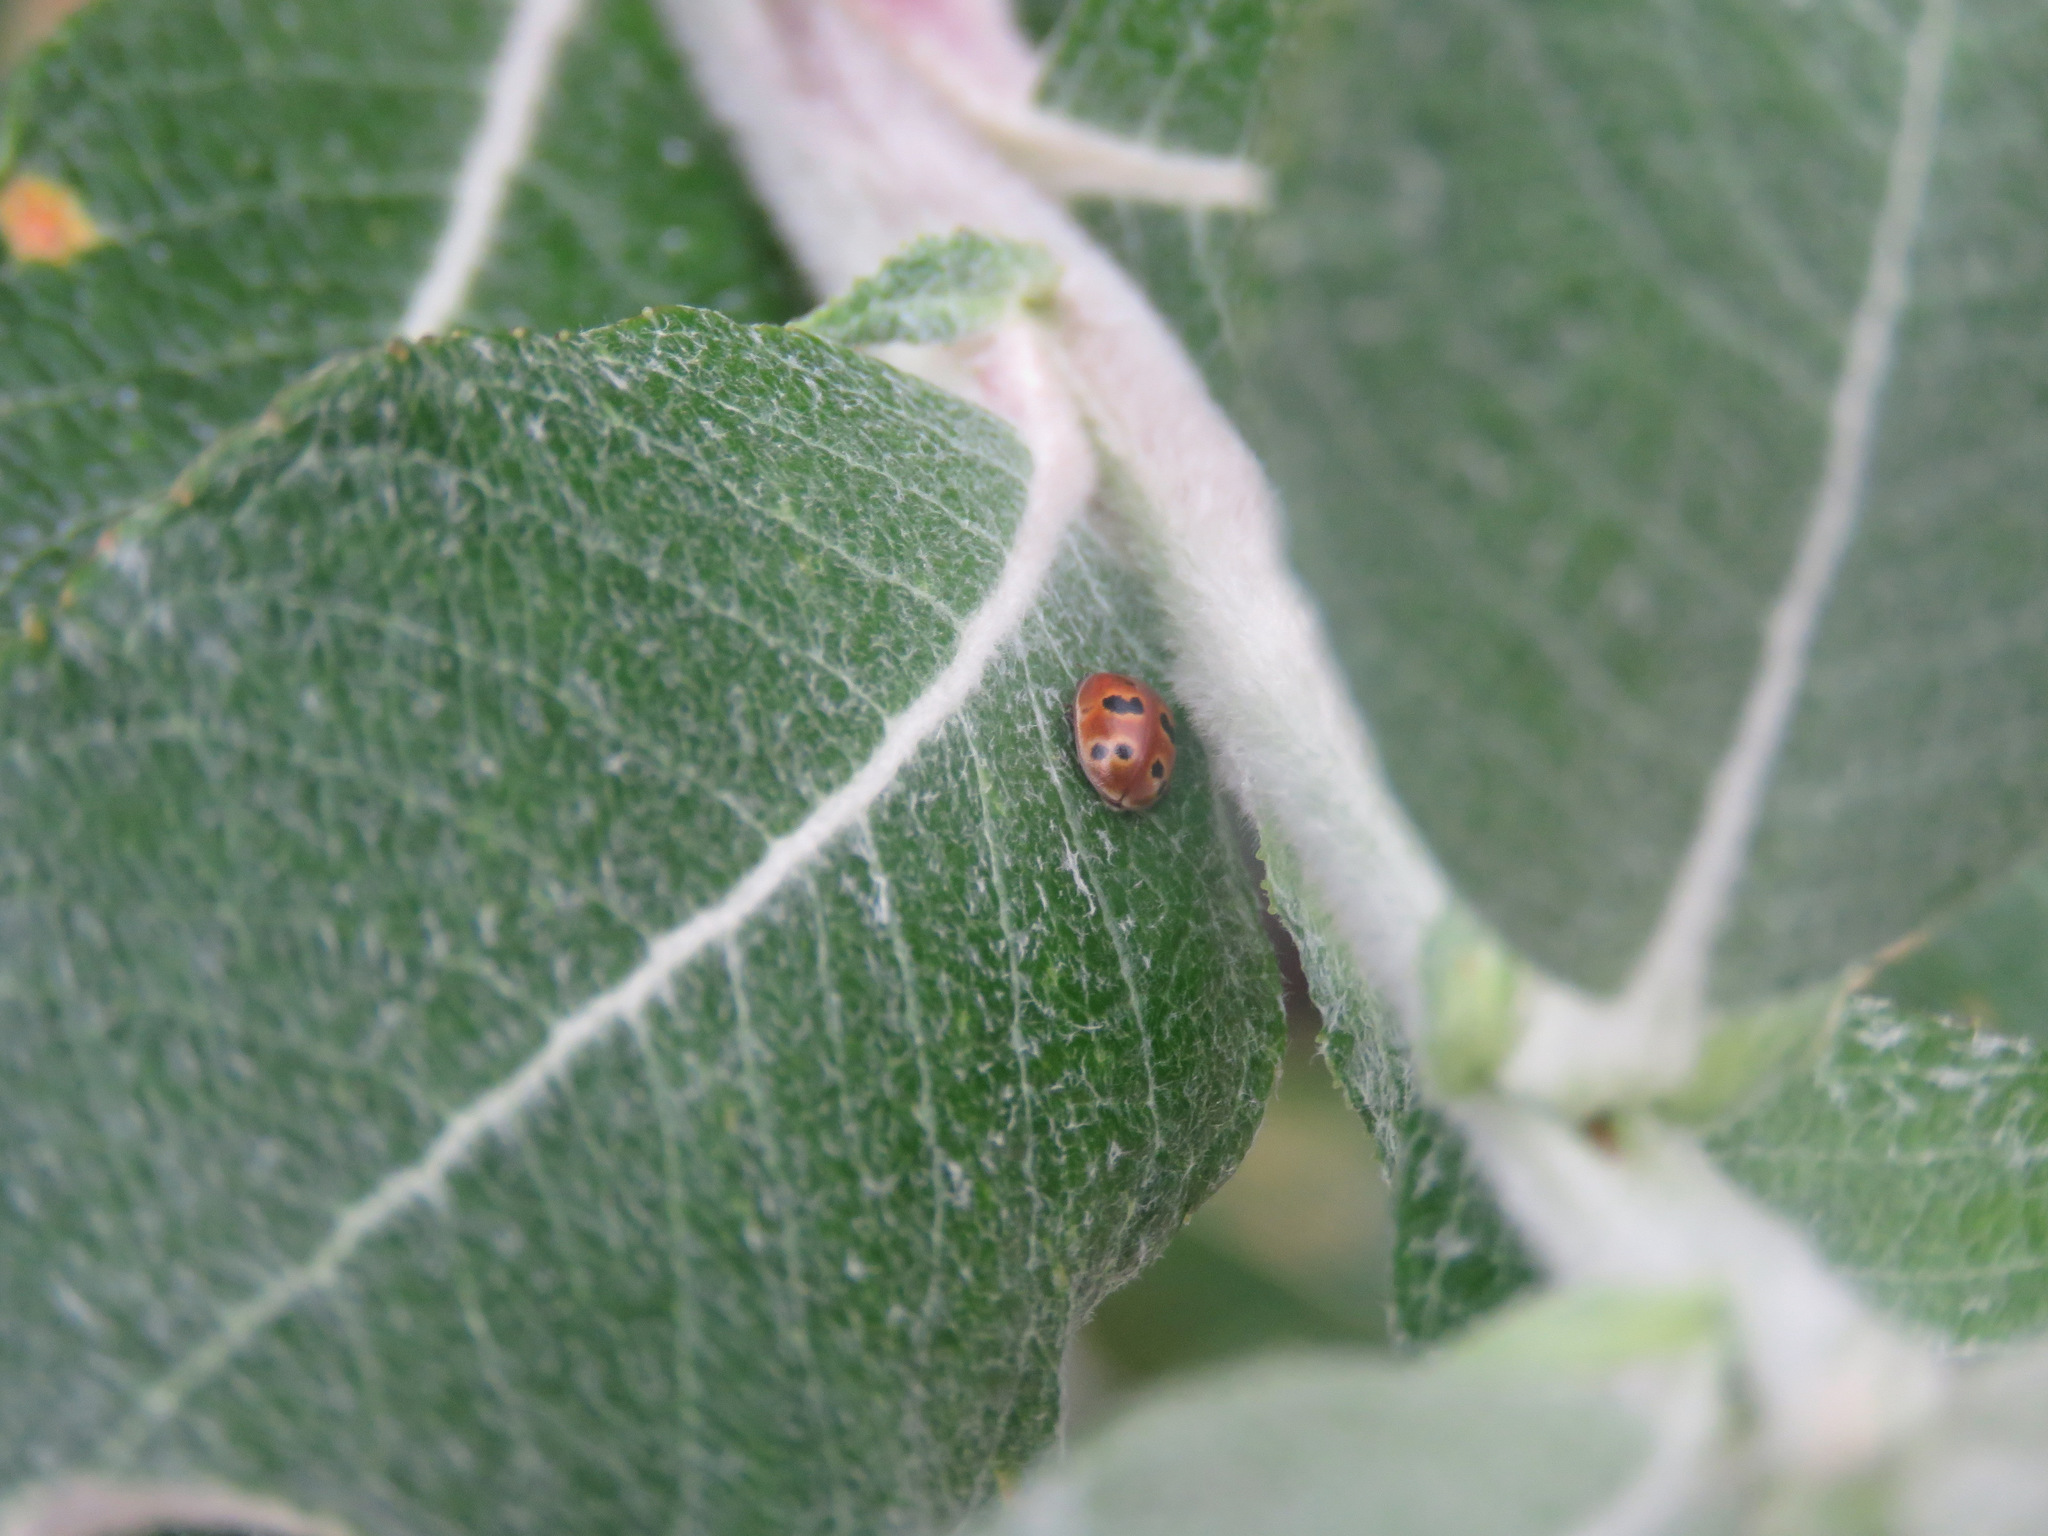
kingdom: Animalia
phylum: Arthropoda
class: Insecta
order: Coleoptera
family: Coccinellidae
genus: Adalia
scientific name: Adalia bipunctata
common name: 2-spot ladybird
